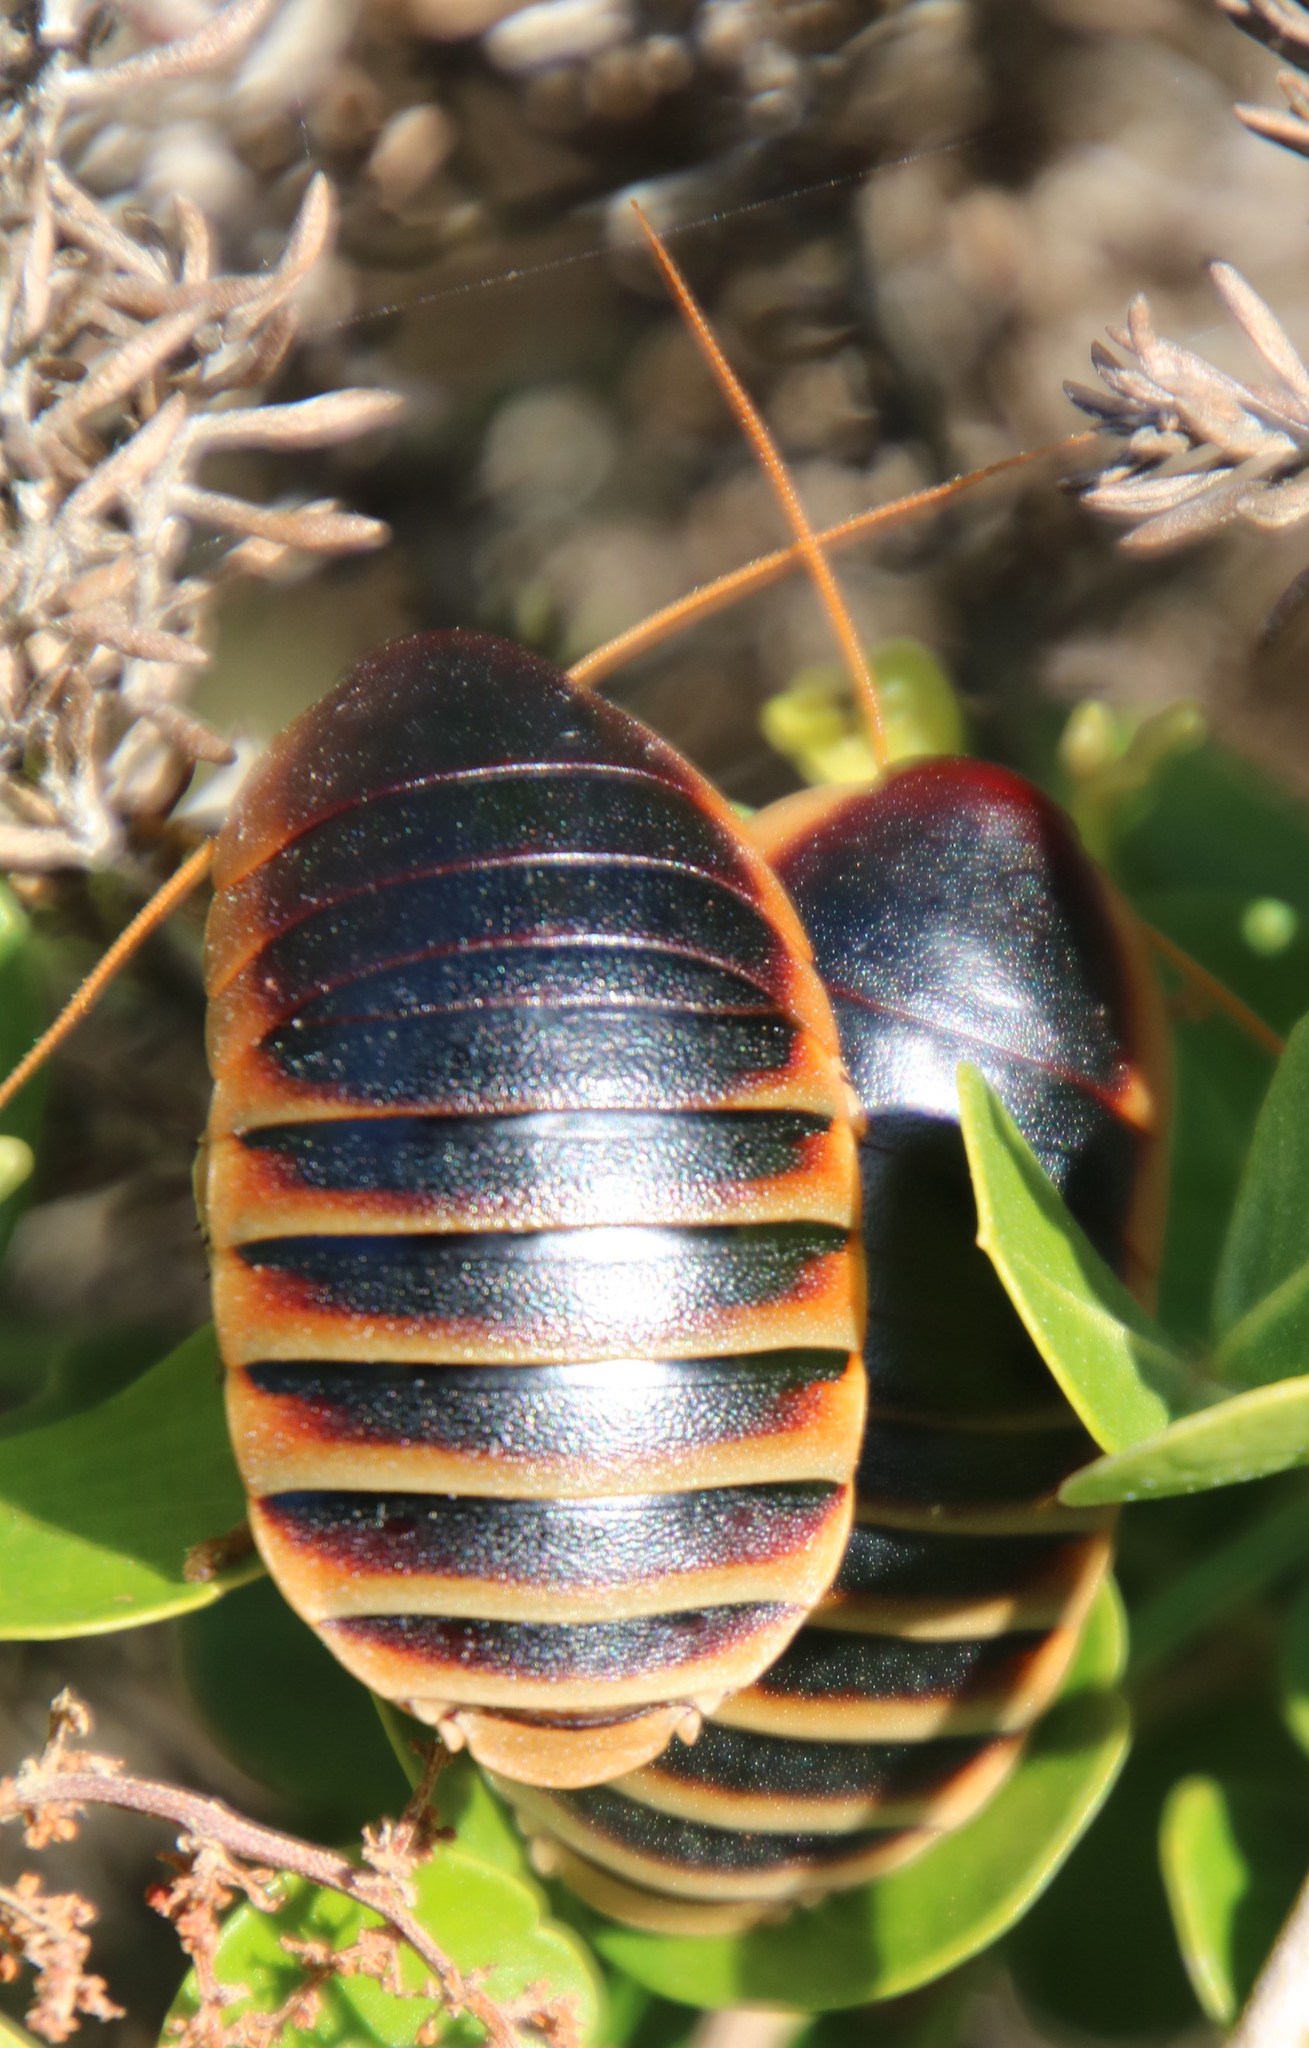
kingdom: Animalia
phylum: Arthropoda
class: Insecta
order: Blattodea
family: Blaberidae
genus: Aptera
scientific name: Aptera fusca
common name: Cape mountain cockroach
